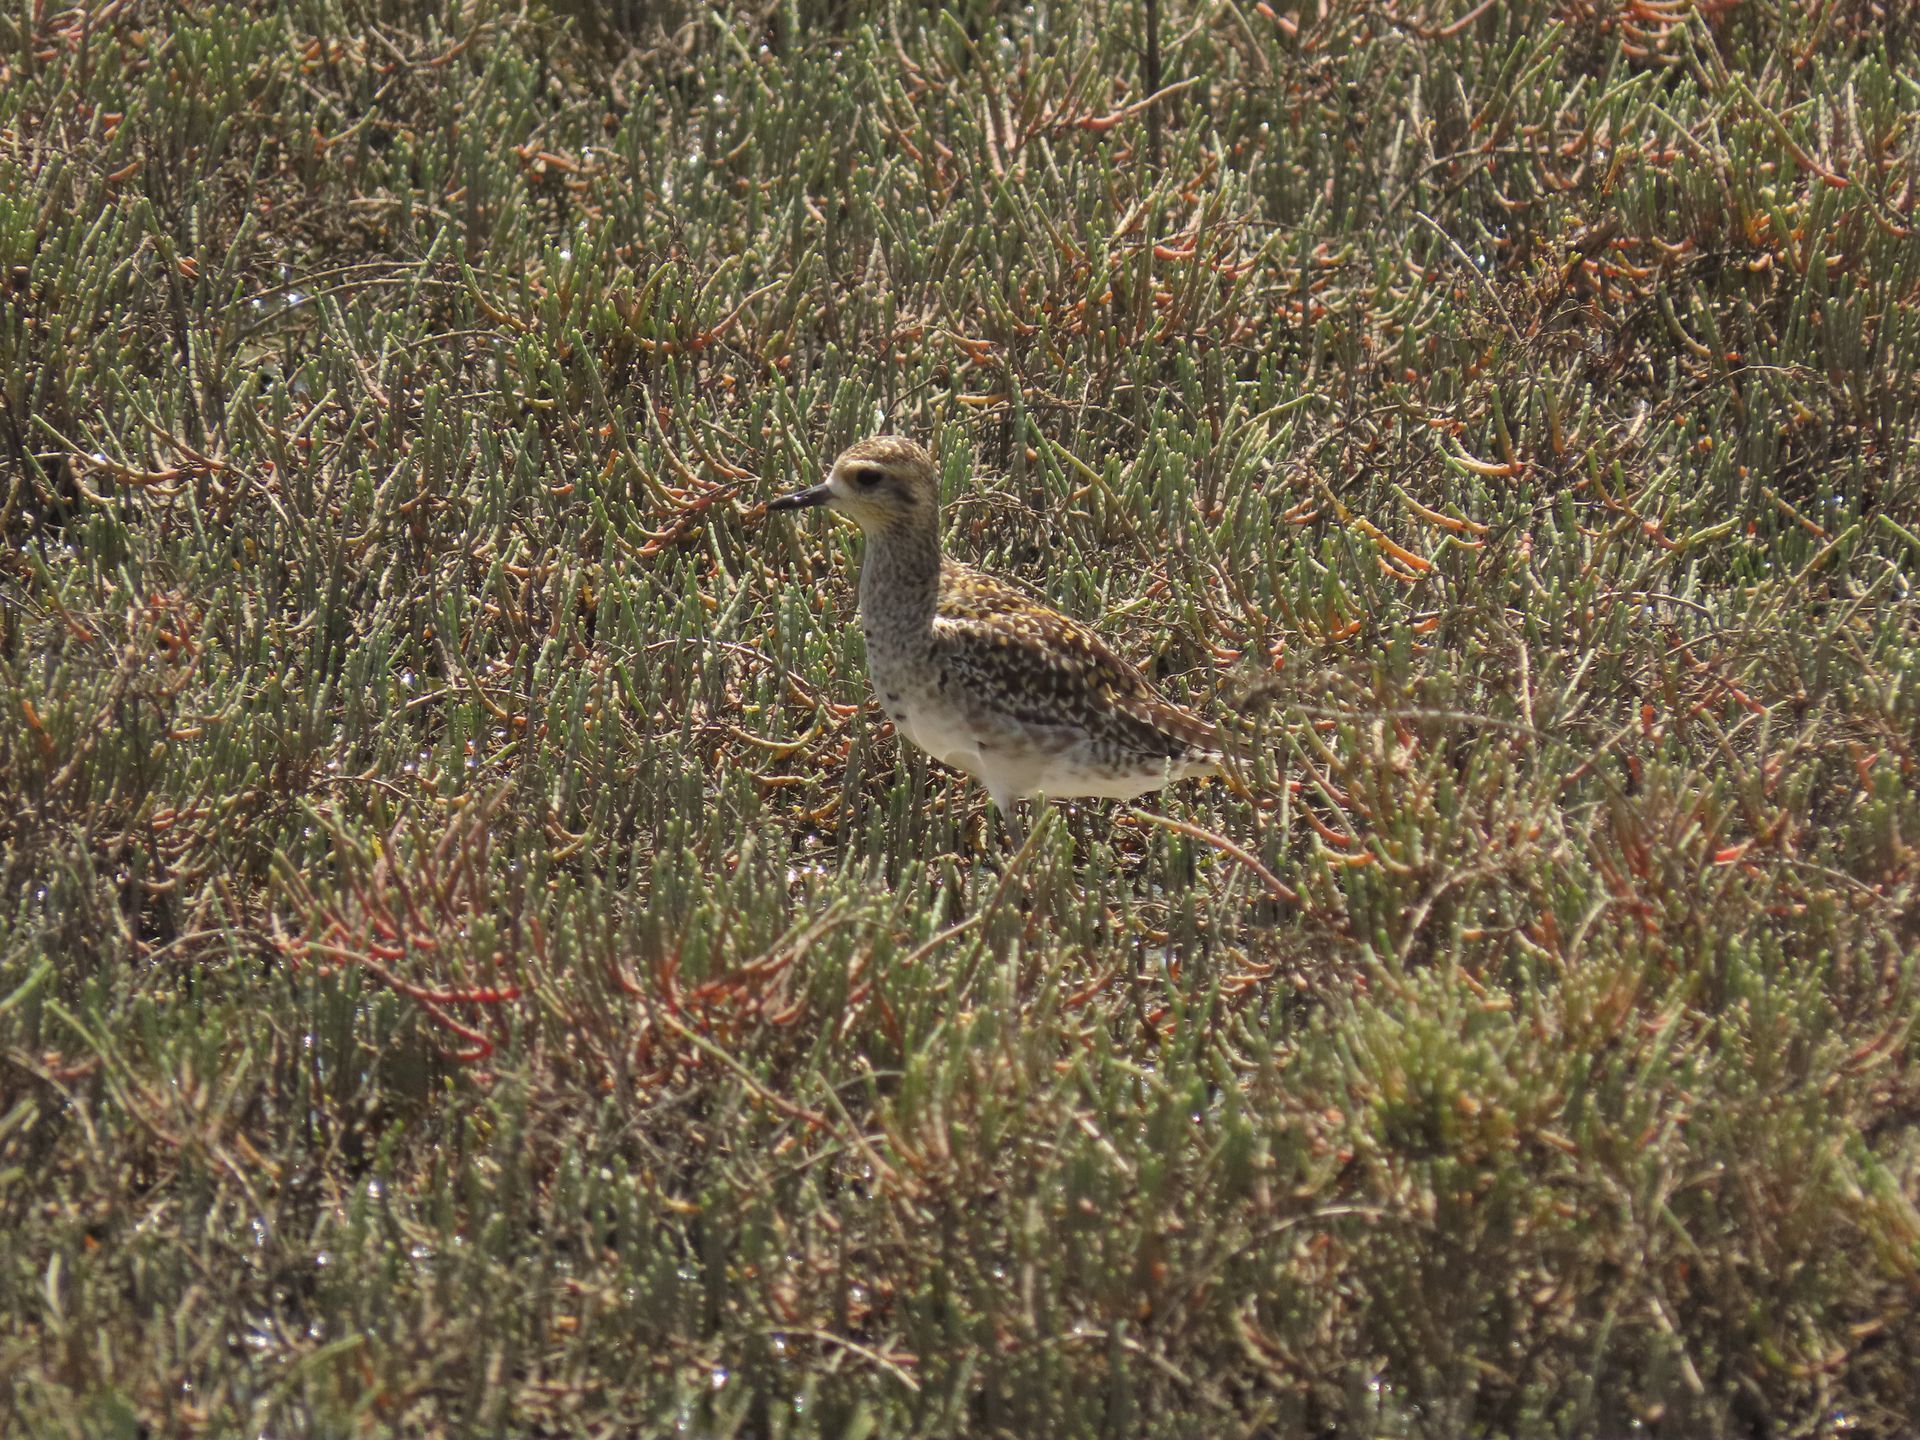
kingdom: Animalia
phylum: Chordata
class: Aves
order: Charadriiformes
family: Charadriidae
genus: Pluvialis
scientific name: Pluvialis fulva
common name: Pacific golden plover
